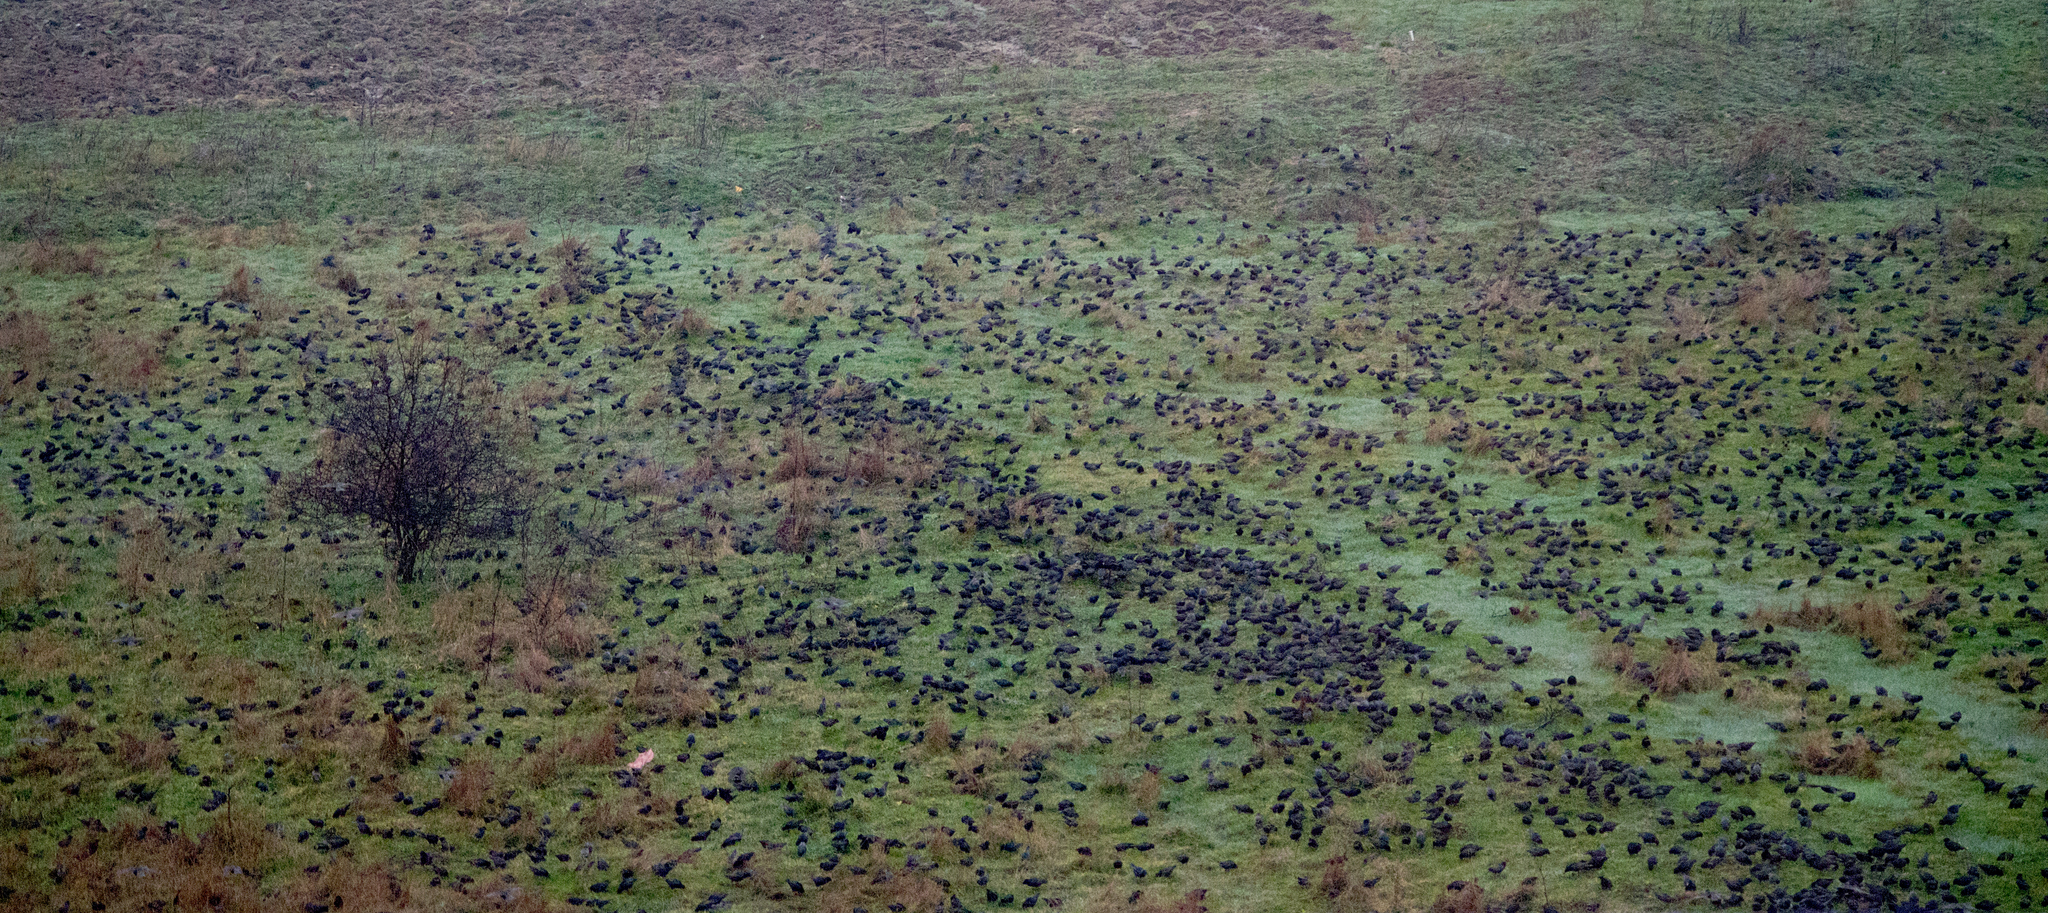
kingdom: Animalia
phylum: Chordata
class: Aves
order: Passeriformes
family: Sturnidae
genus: Sturnus
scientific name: Sturnus vulgaris
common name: Common starling
